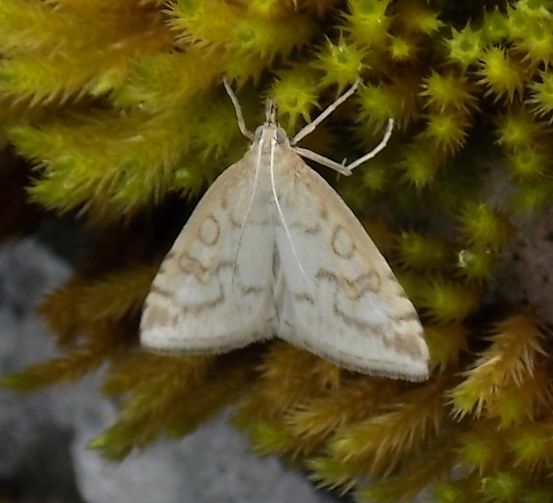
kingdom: Animalia
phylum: Arthropoda
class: Insecta
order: Lepidoptera
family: Crambidae
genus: Udea
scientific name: Udea lutealis
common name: Pale straw pearl
